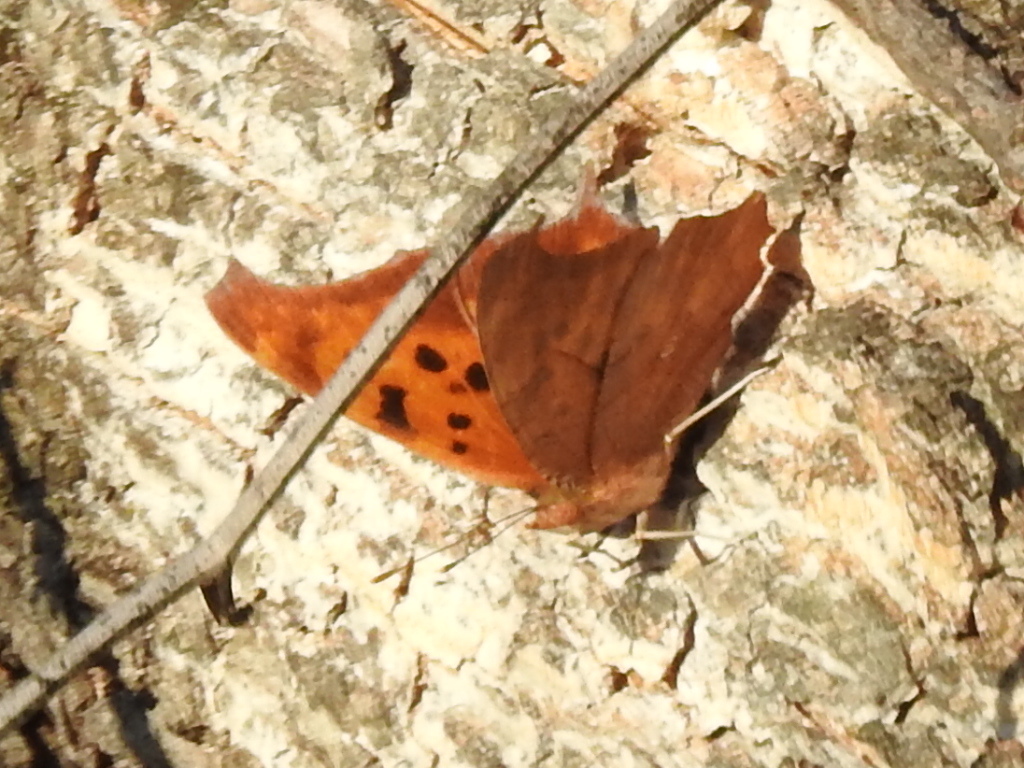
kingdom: Animalia
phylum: Arthropoda
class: Insecta
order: Lepidoptera
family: Nymphalidae
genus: Polygonia
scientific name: Polygonia interrogationis
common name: Question mark
